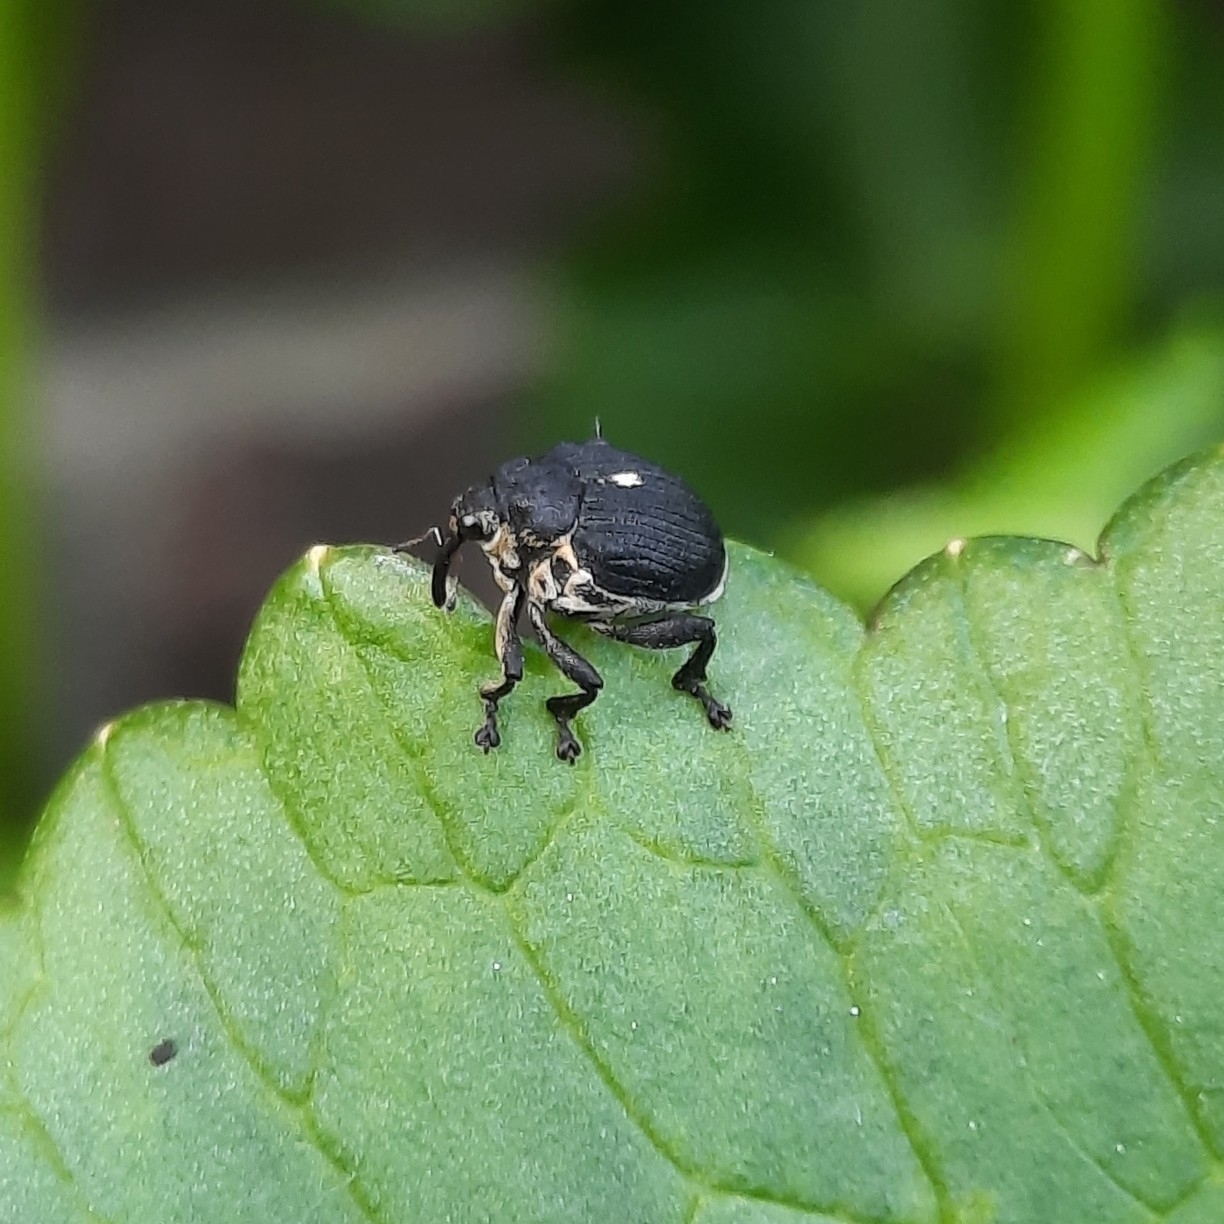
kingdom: Animalia
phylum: Arthropoda
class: Insecta
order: Coleoptera
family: Curculionidae
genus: Mononychus
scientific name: Mononychus punctumalbum
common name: Iris weevil
